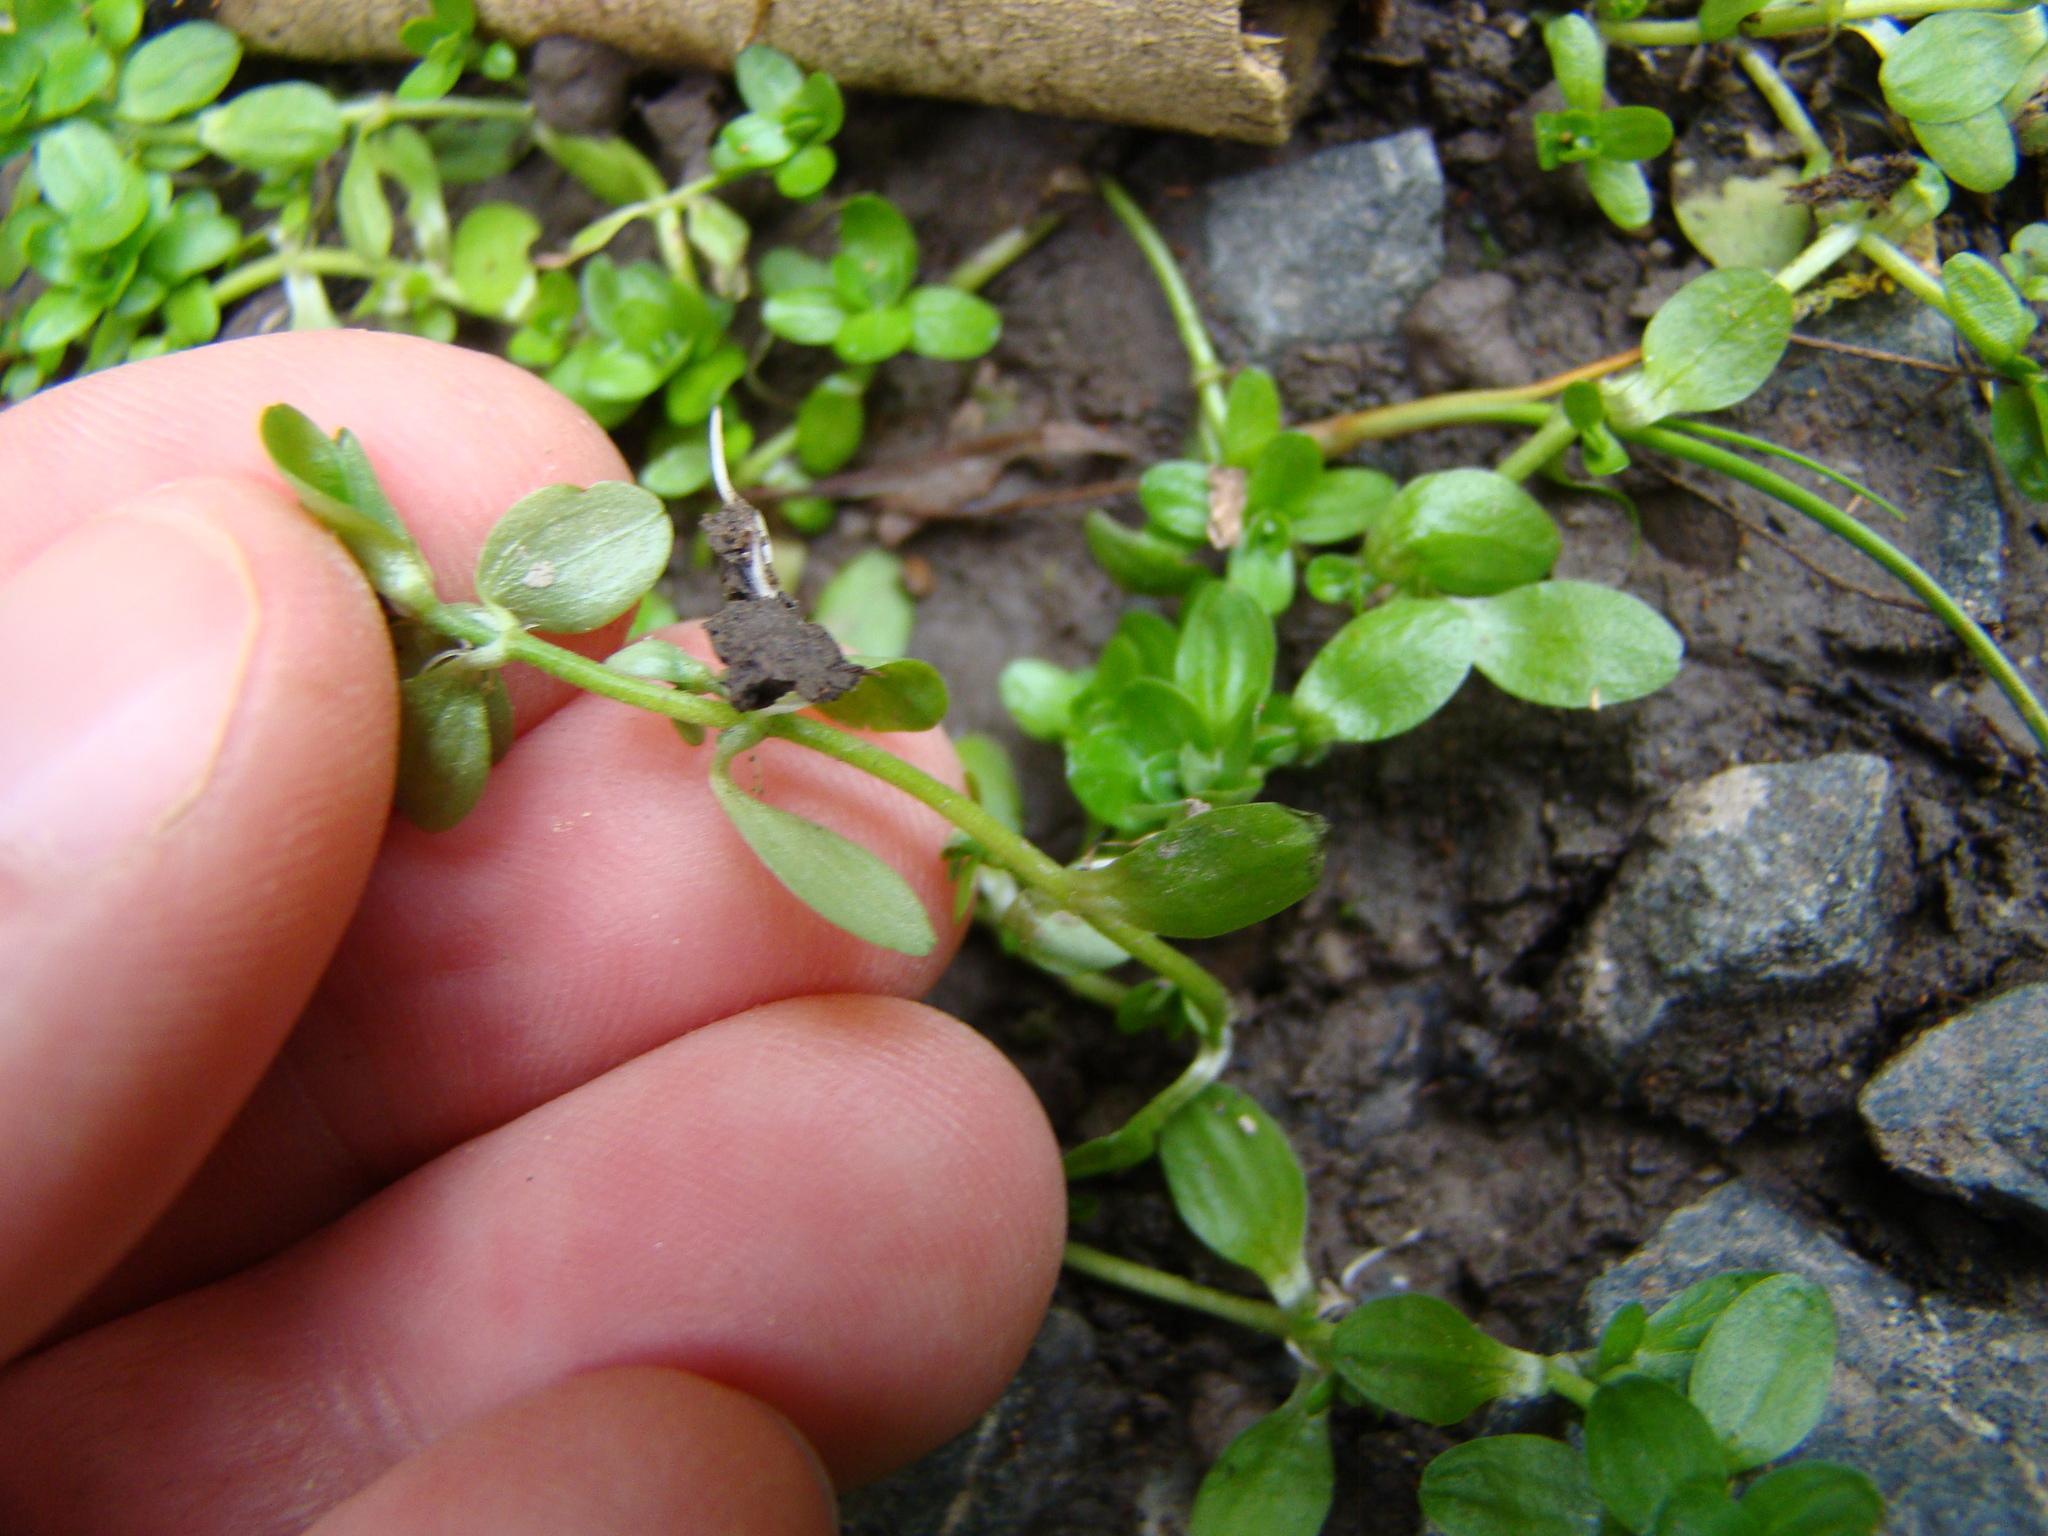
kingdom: Plantae
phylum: Tracheophyta
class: Magnoliopsida
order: Lamiales
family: Plantaginaceae
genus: Callitriche
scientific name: Callitriche stagnalis
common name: Common water-starwort
